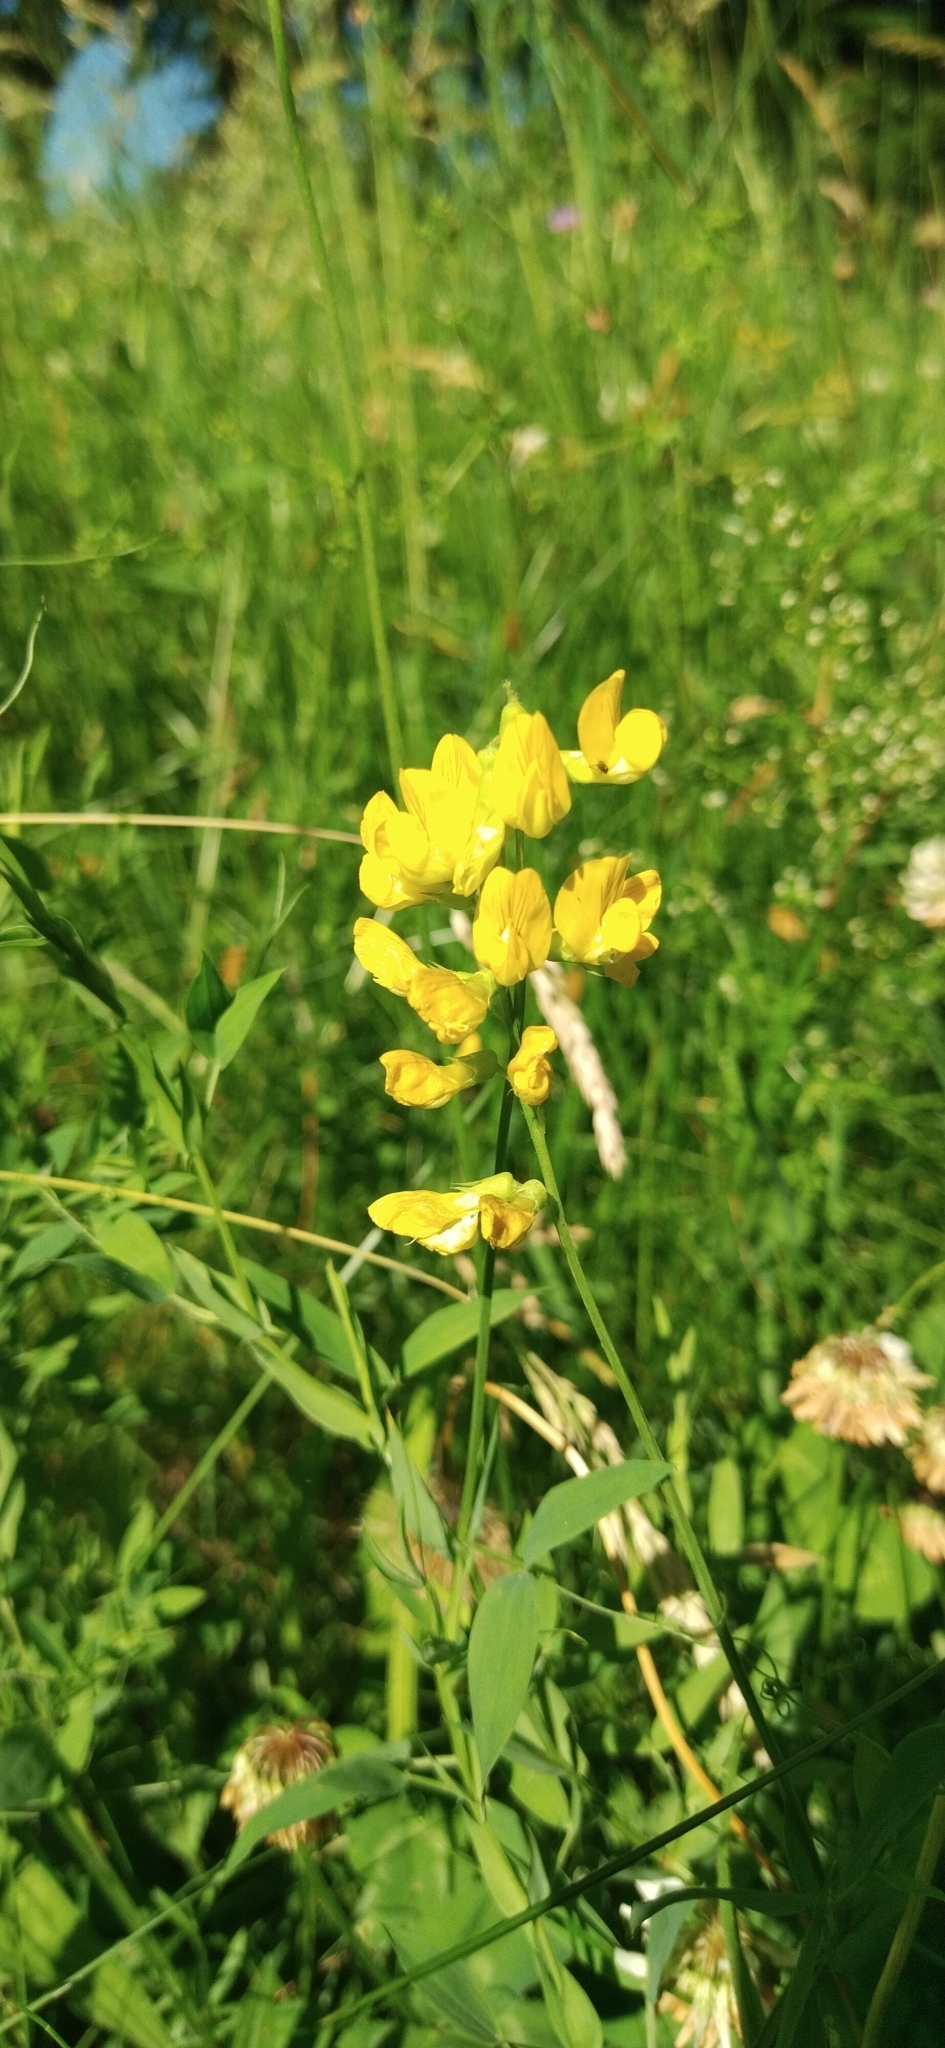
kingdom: Plantae
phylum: Tracheophyta
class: Magnoliopsida
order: Fabales
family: Fabaceae
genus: Lathyrus
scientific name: Lathyrus pratensis
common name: Meadow vetchling
